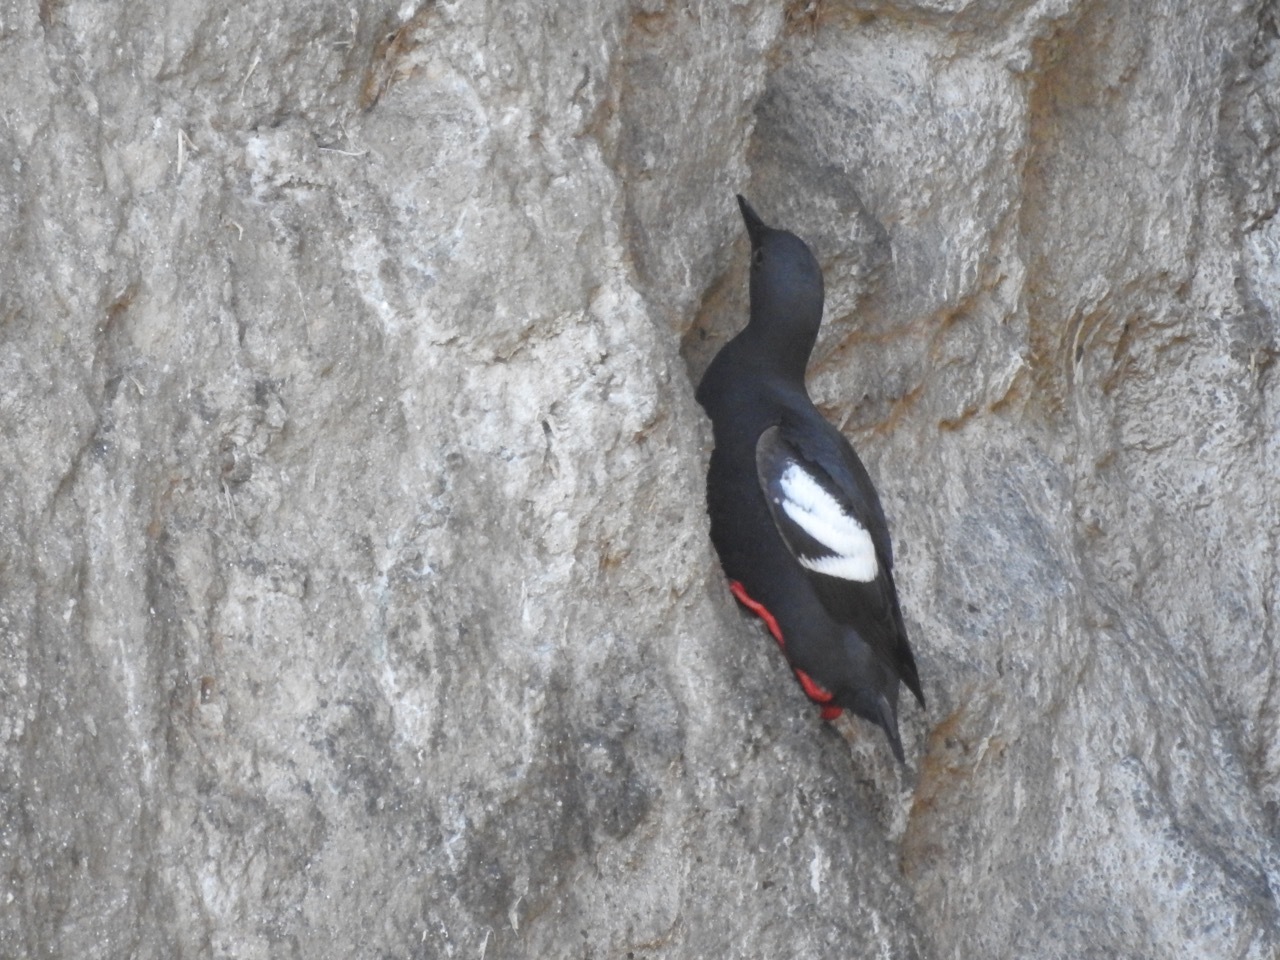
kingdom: Animalia
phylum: Chordata
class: Aves
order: Charadriiformes
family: Alcidae
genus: Cepphus
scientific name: Cepphus columba
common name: Pigeon guillemot
